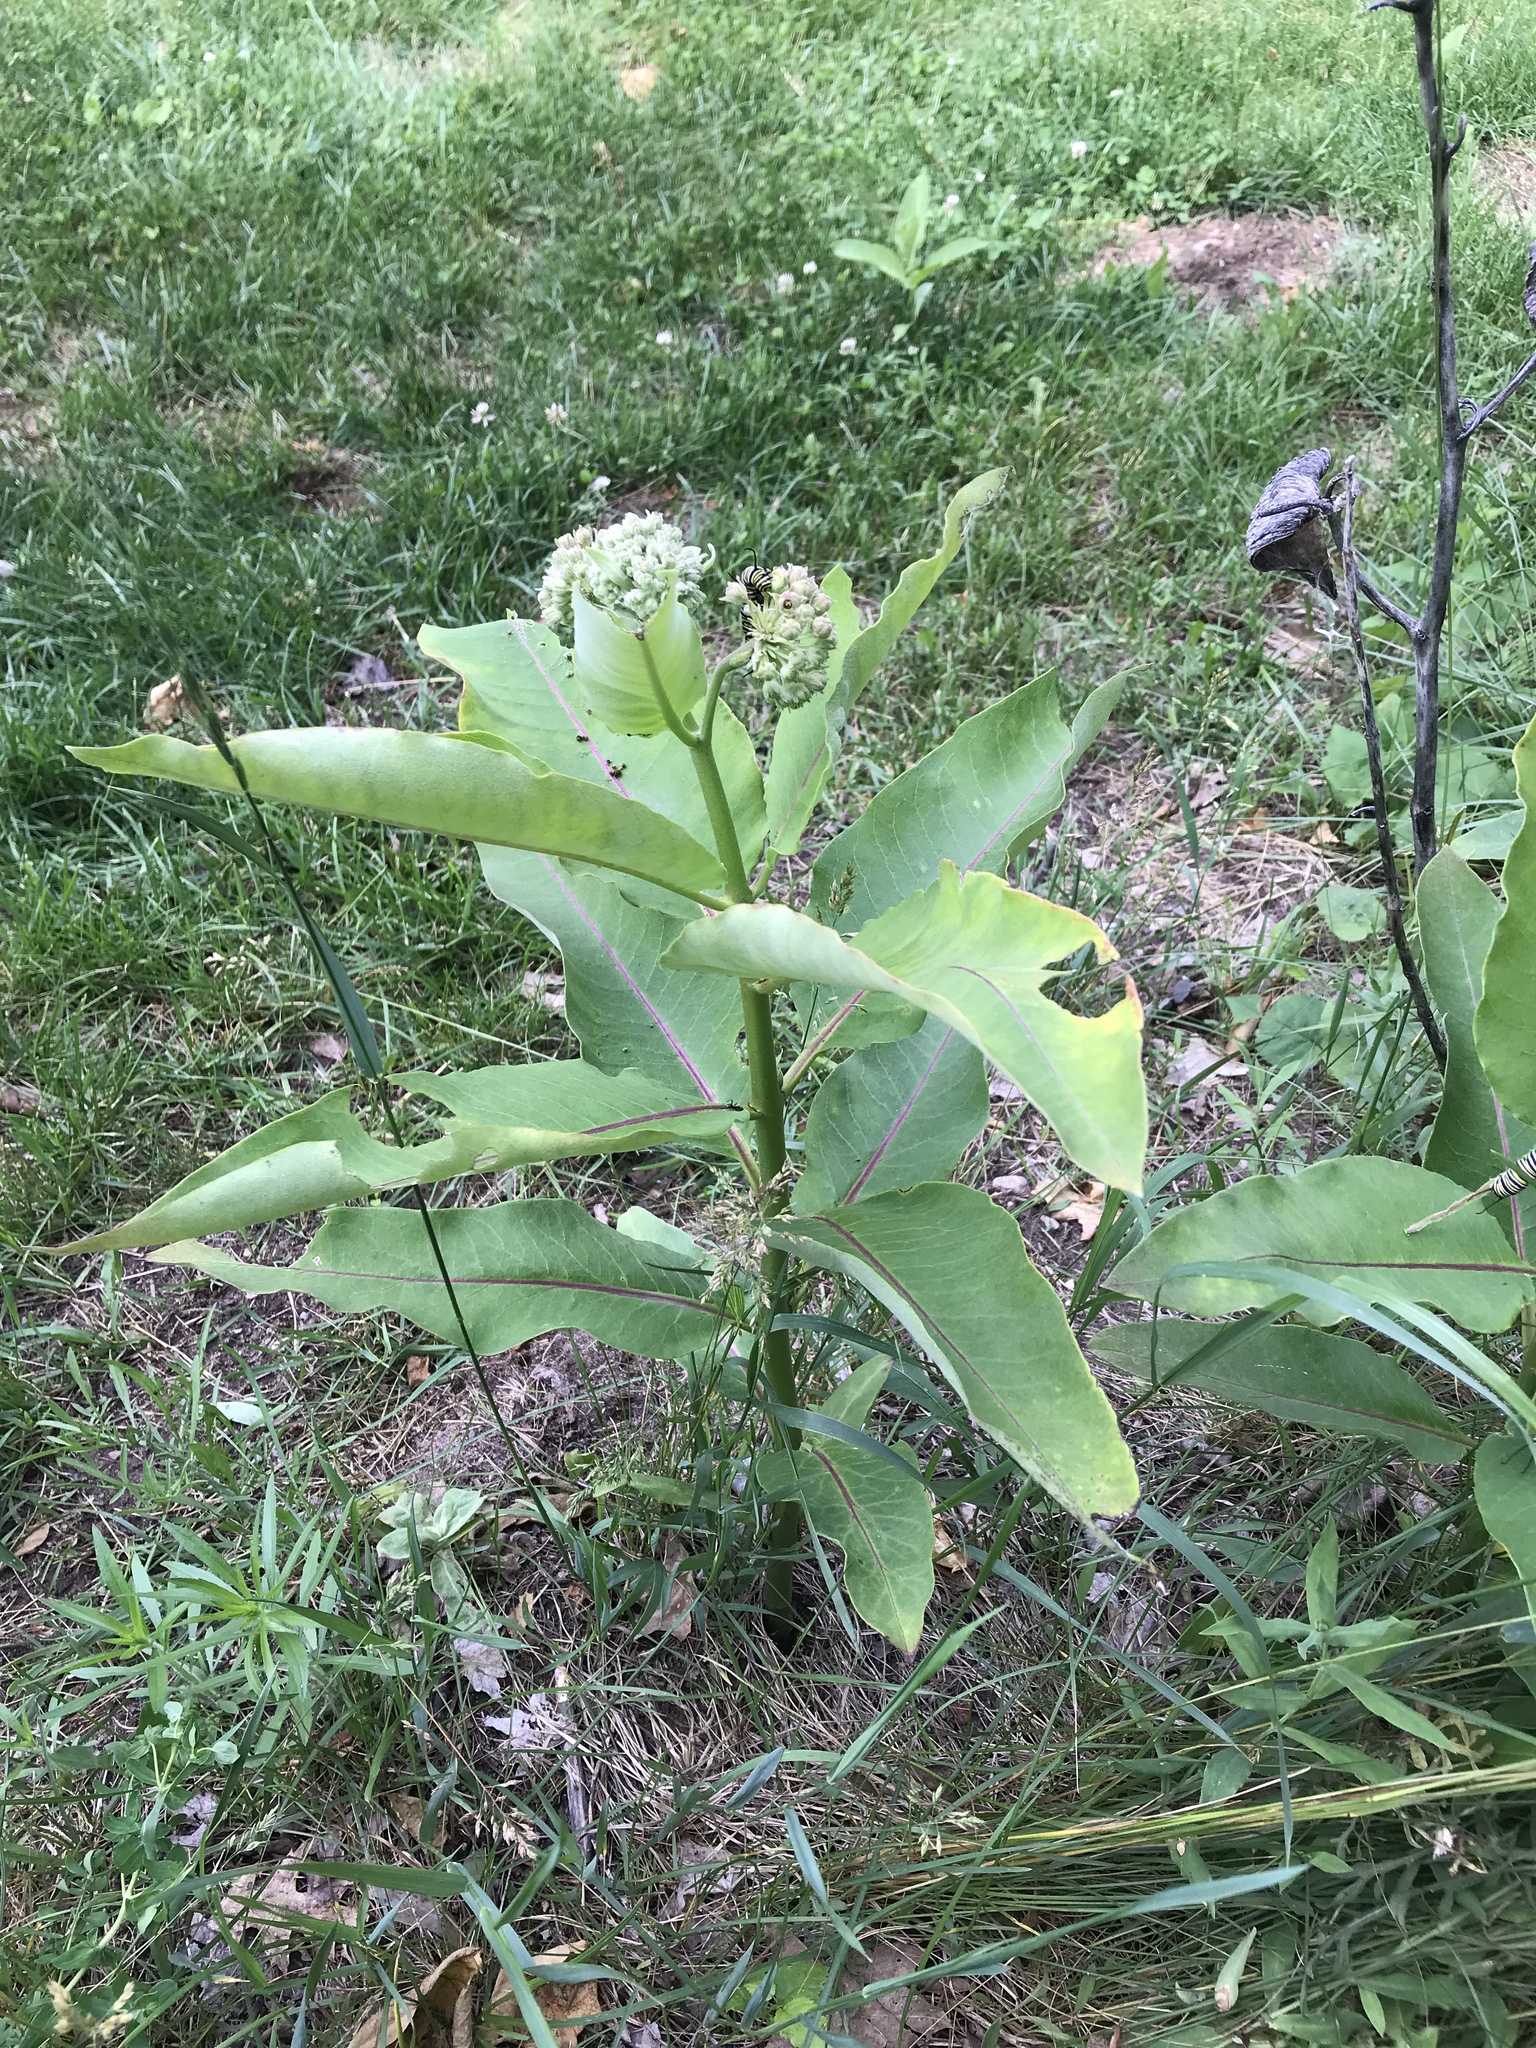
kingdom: Plantae
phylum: Tracheophyta
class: Magnoliopsida
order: Gentianales
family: Apocynaceae
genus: Asclepias
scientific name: Asclepias syriaca
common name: Common milkweed
